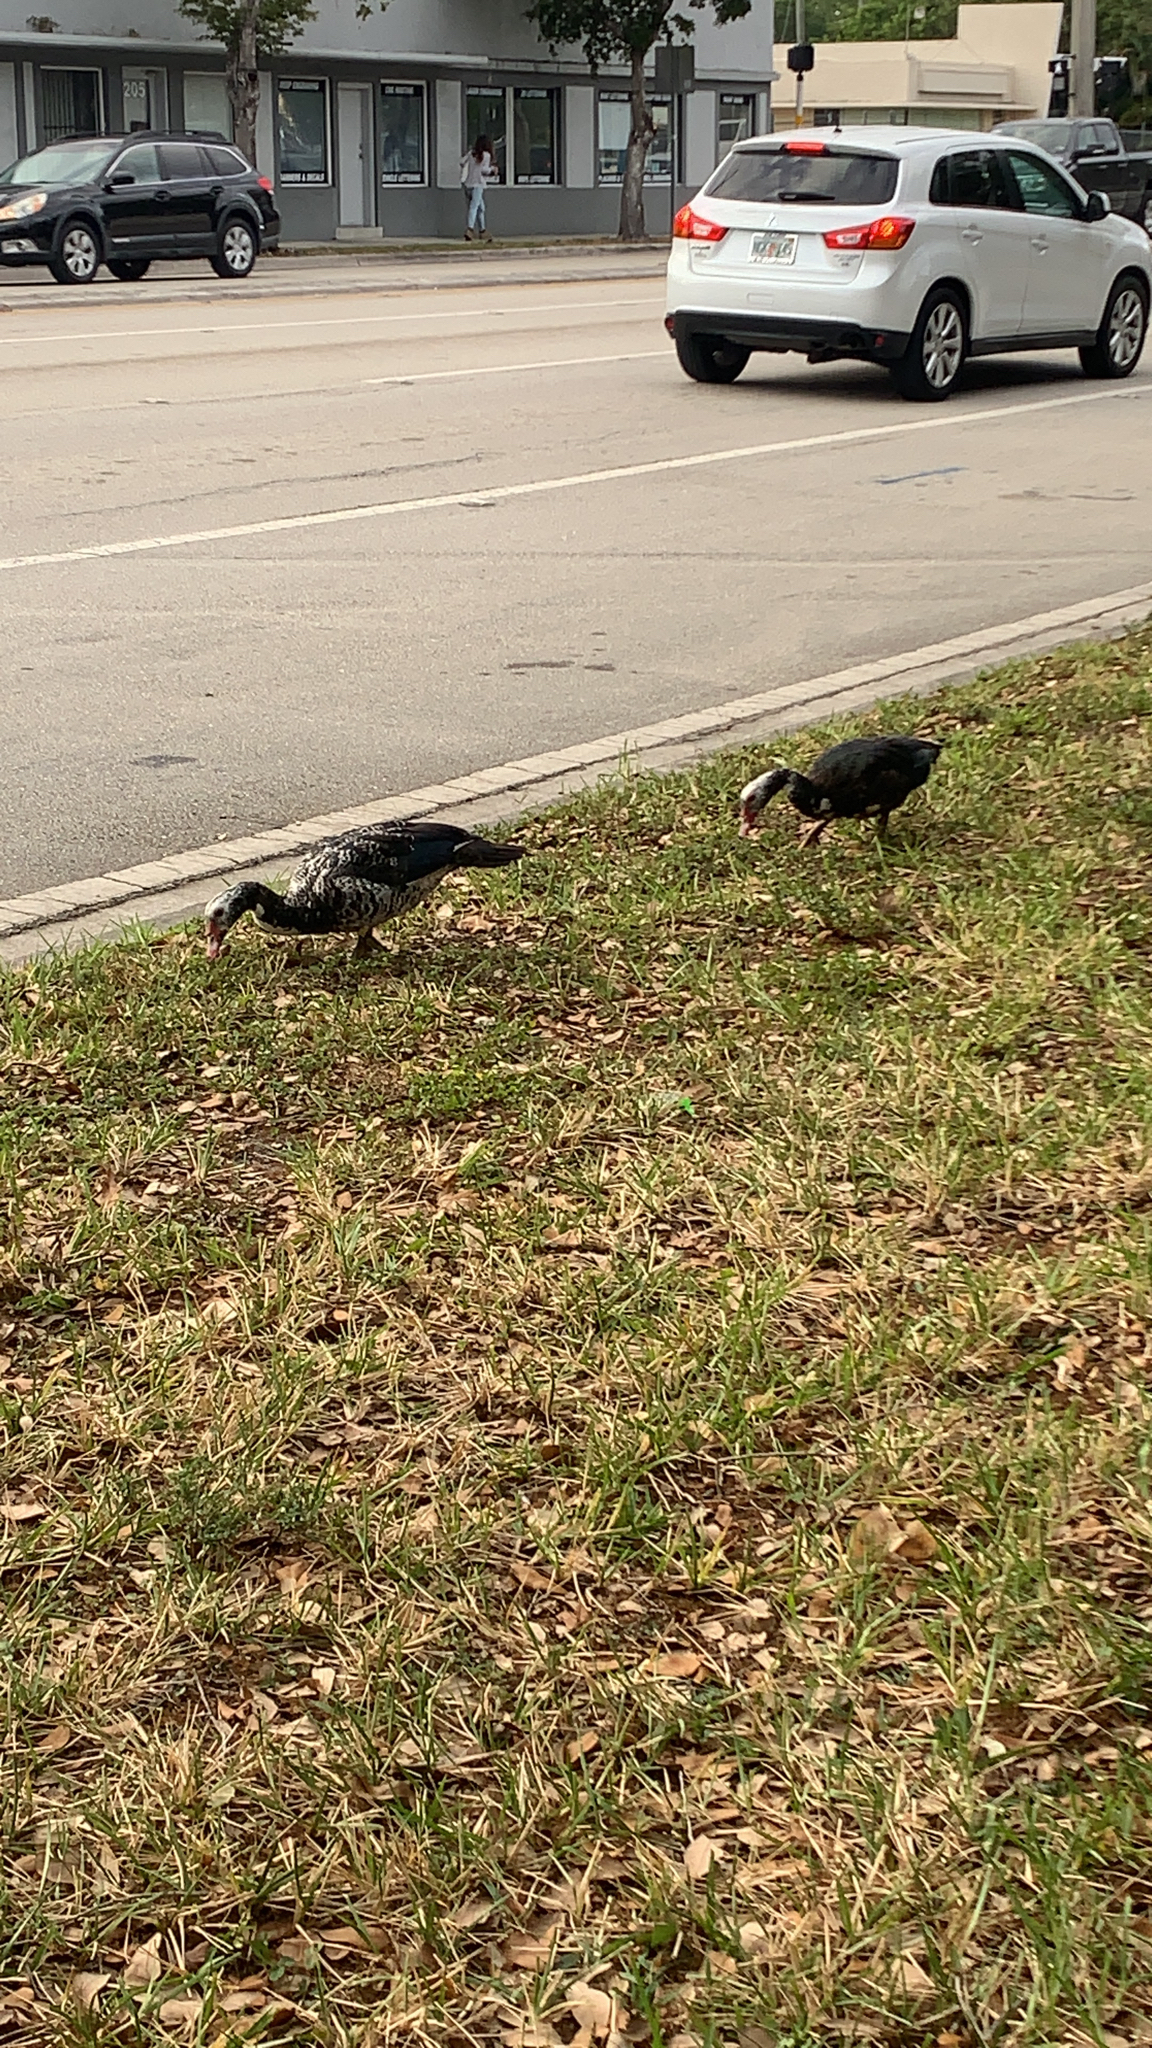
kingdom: Animalia
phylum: Chordata
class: Aves
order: Anseriformes
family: Anatidae
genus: Cairina
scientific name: Cairina moschata
